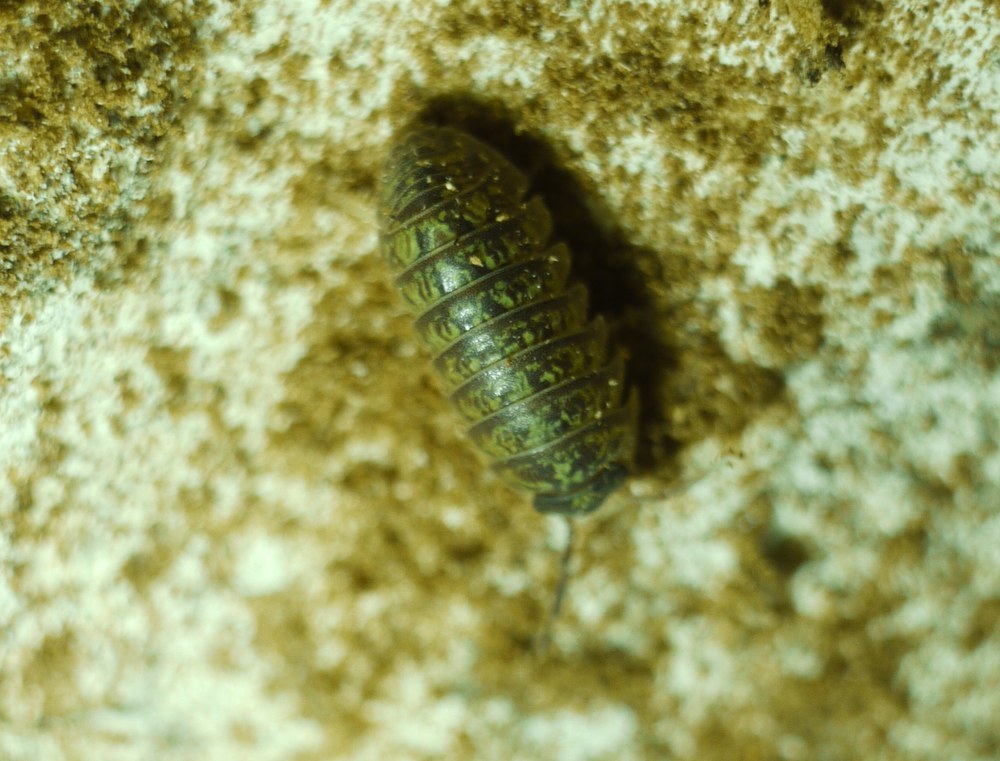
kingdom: Animalia
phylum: Arthropoda
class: Malacostraca
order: Isopoda
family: Armadillidiidae
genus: Armadillidium
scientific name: Armadillidium versicolor
